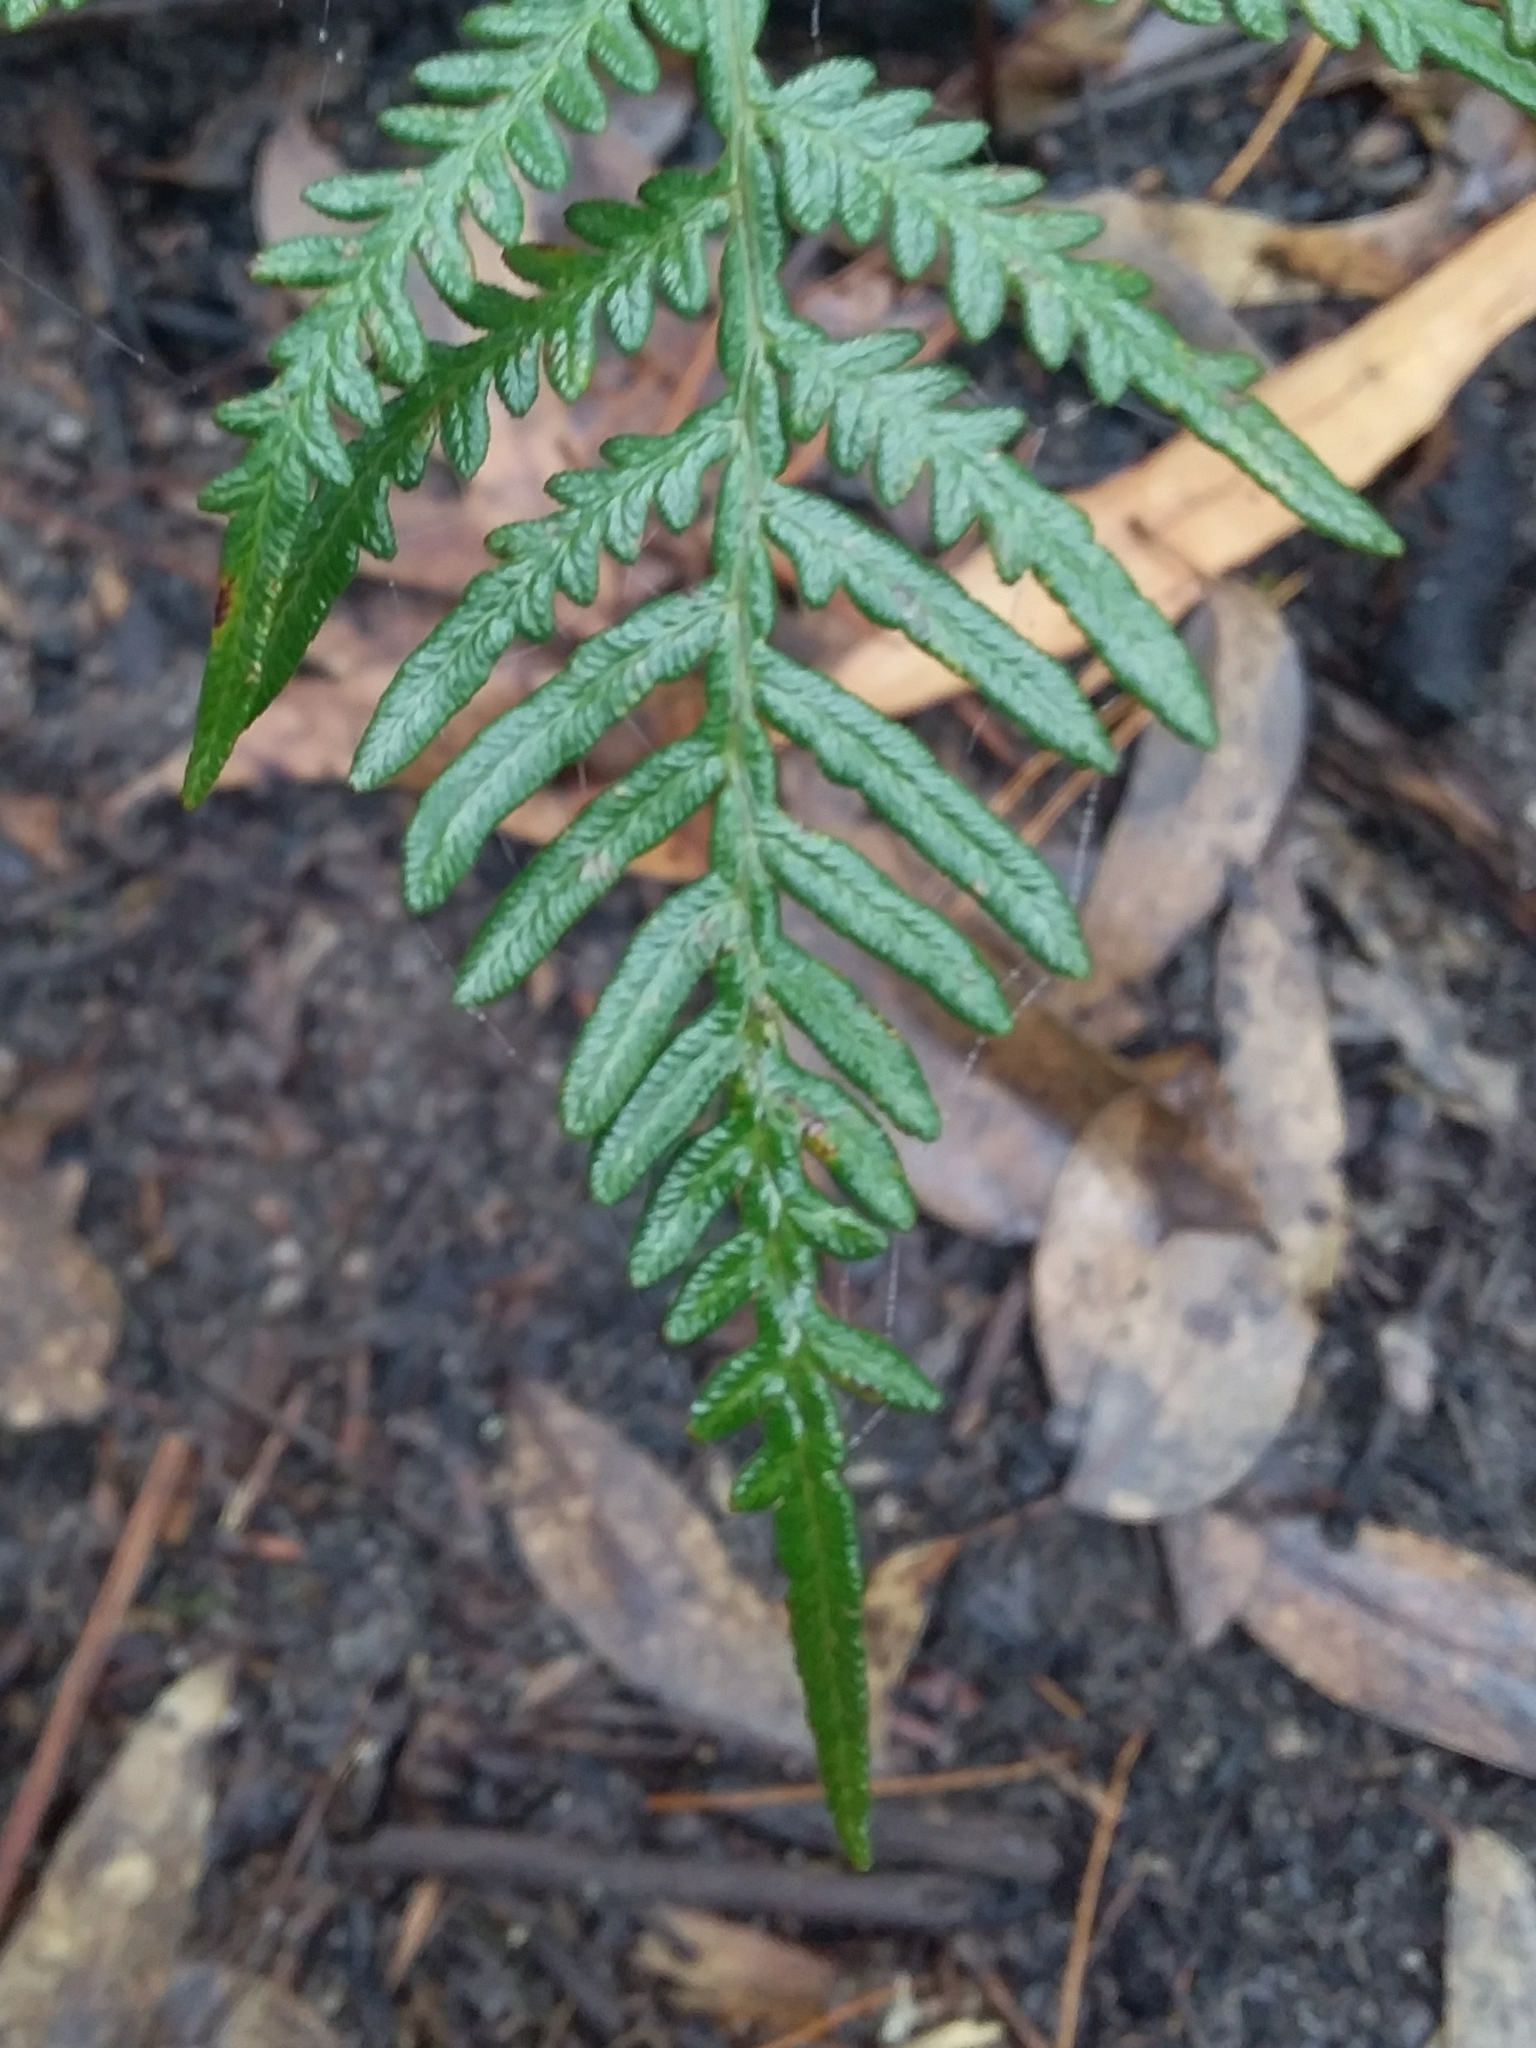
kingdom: Plantae
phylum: Tracheophyta
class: Polypodiopsida
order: Polypodiales
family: Dennstaedtiaceae
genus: Pteridium
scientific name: Pteridium esculentum
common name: Bracken fern
